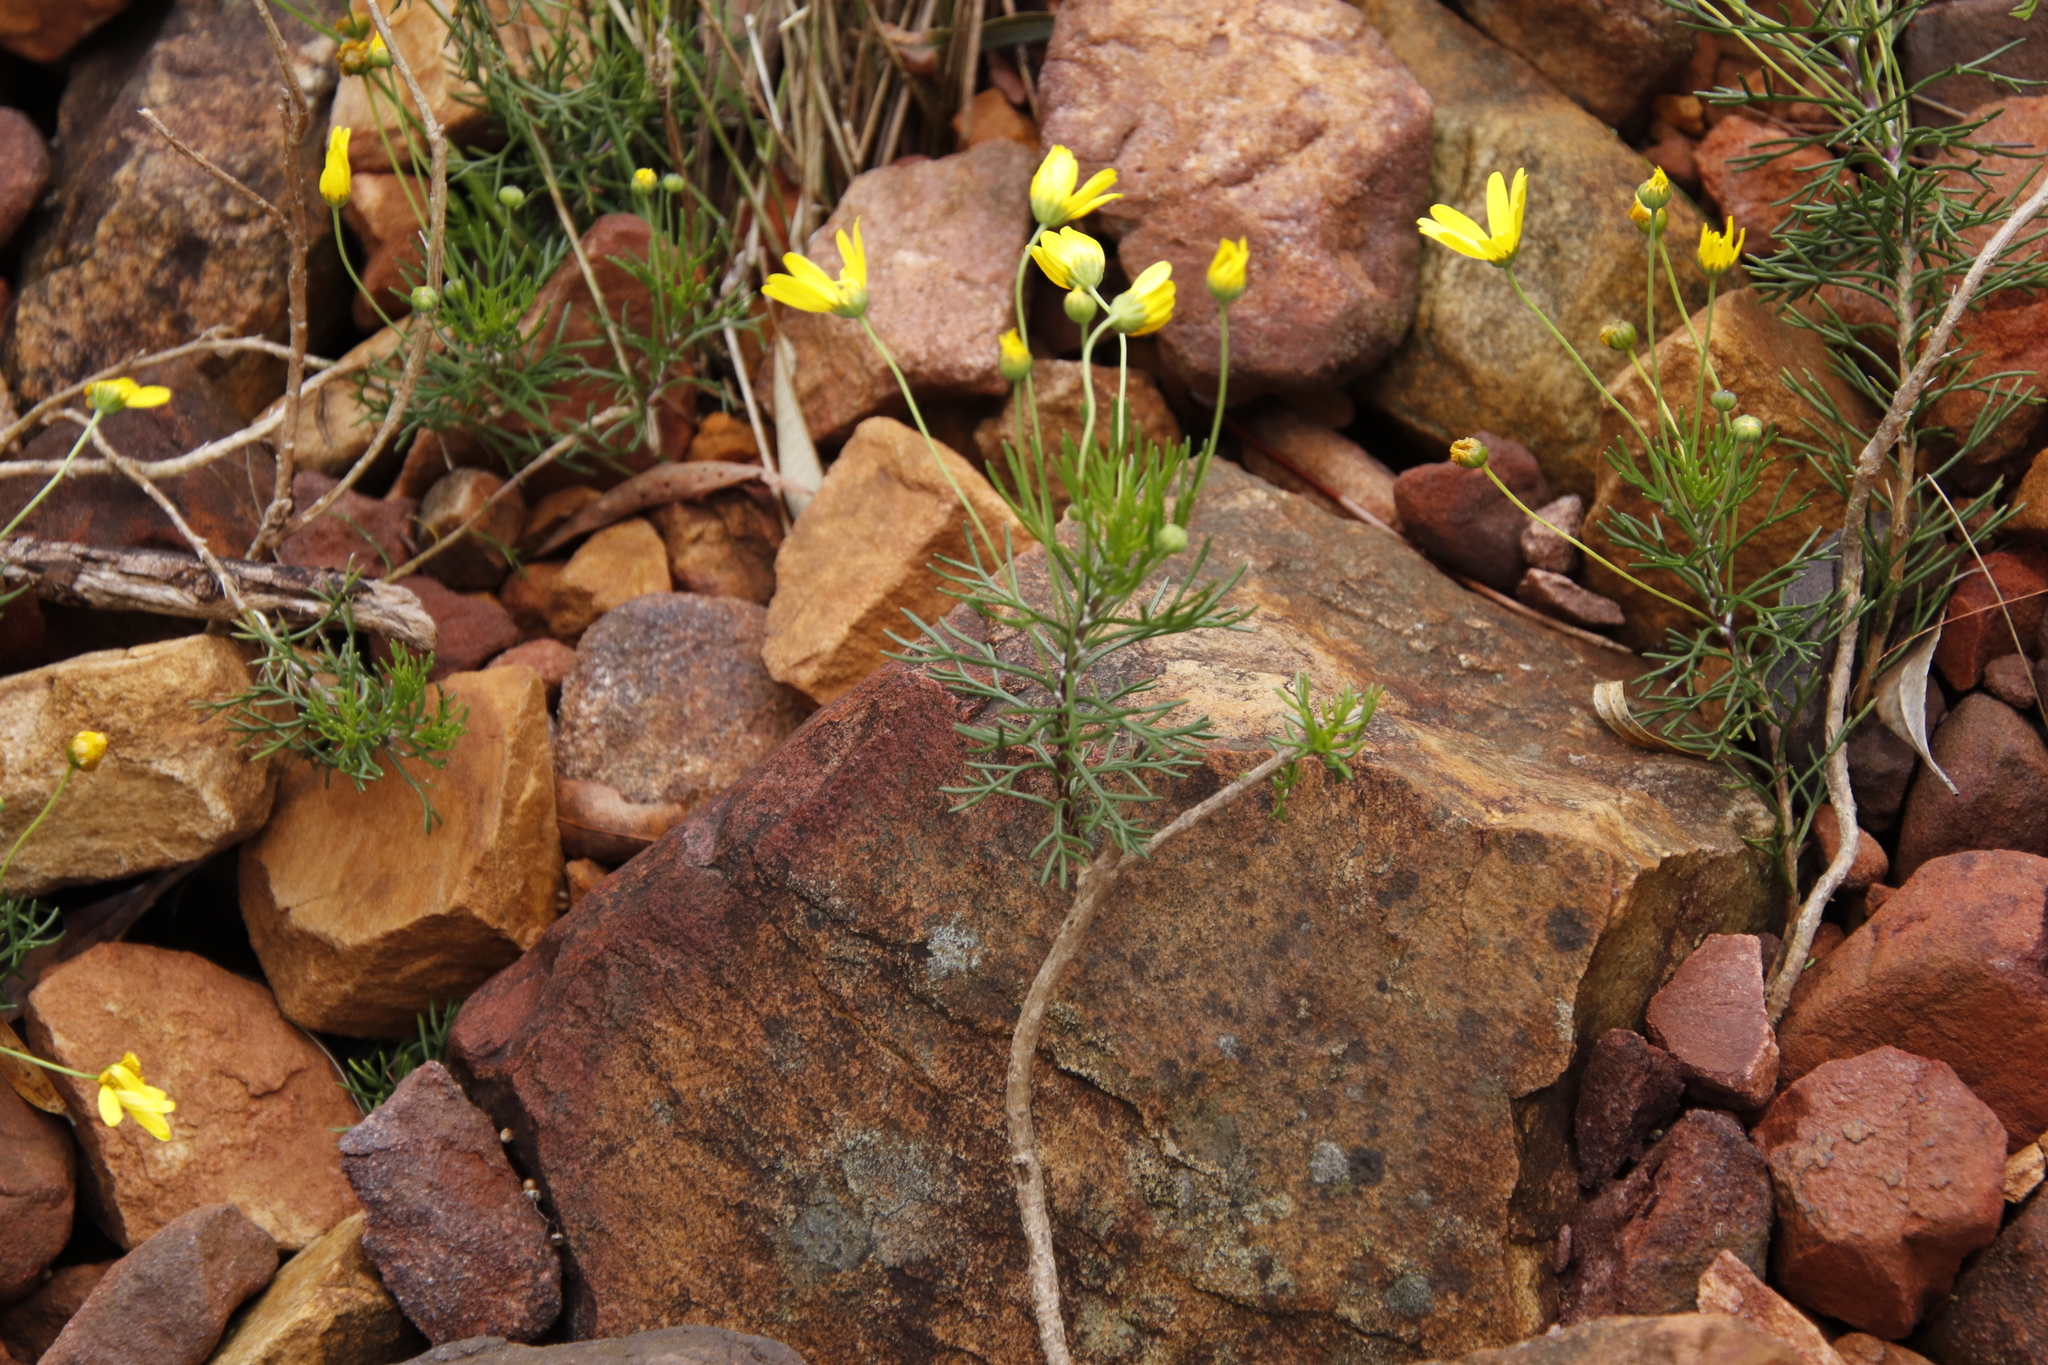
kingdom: Plantae
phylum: Tracheophyta
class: Magnoliopsida
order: Asterales
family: Asteraceae
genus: Euryops
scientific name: Euryops abrotanifolius
